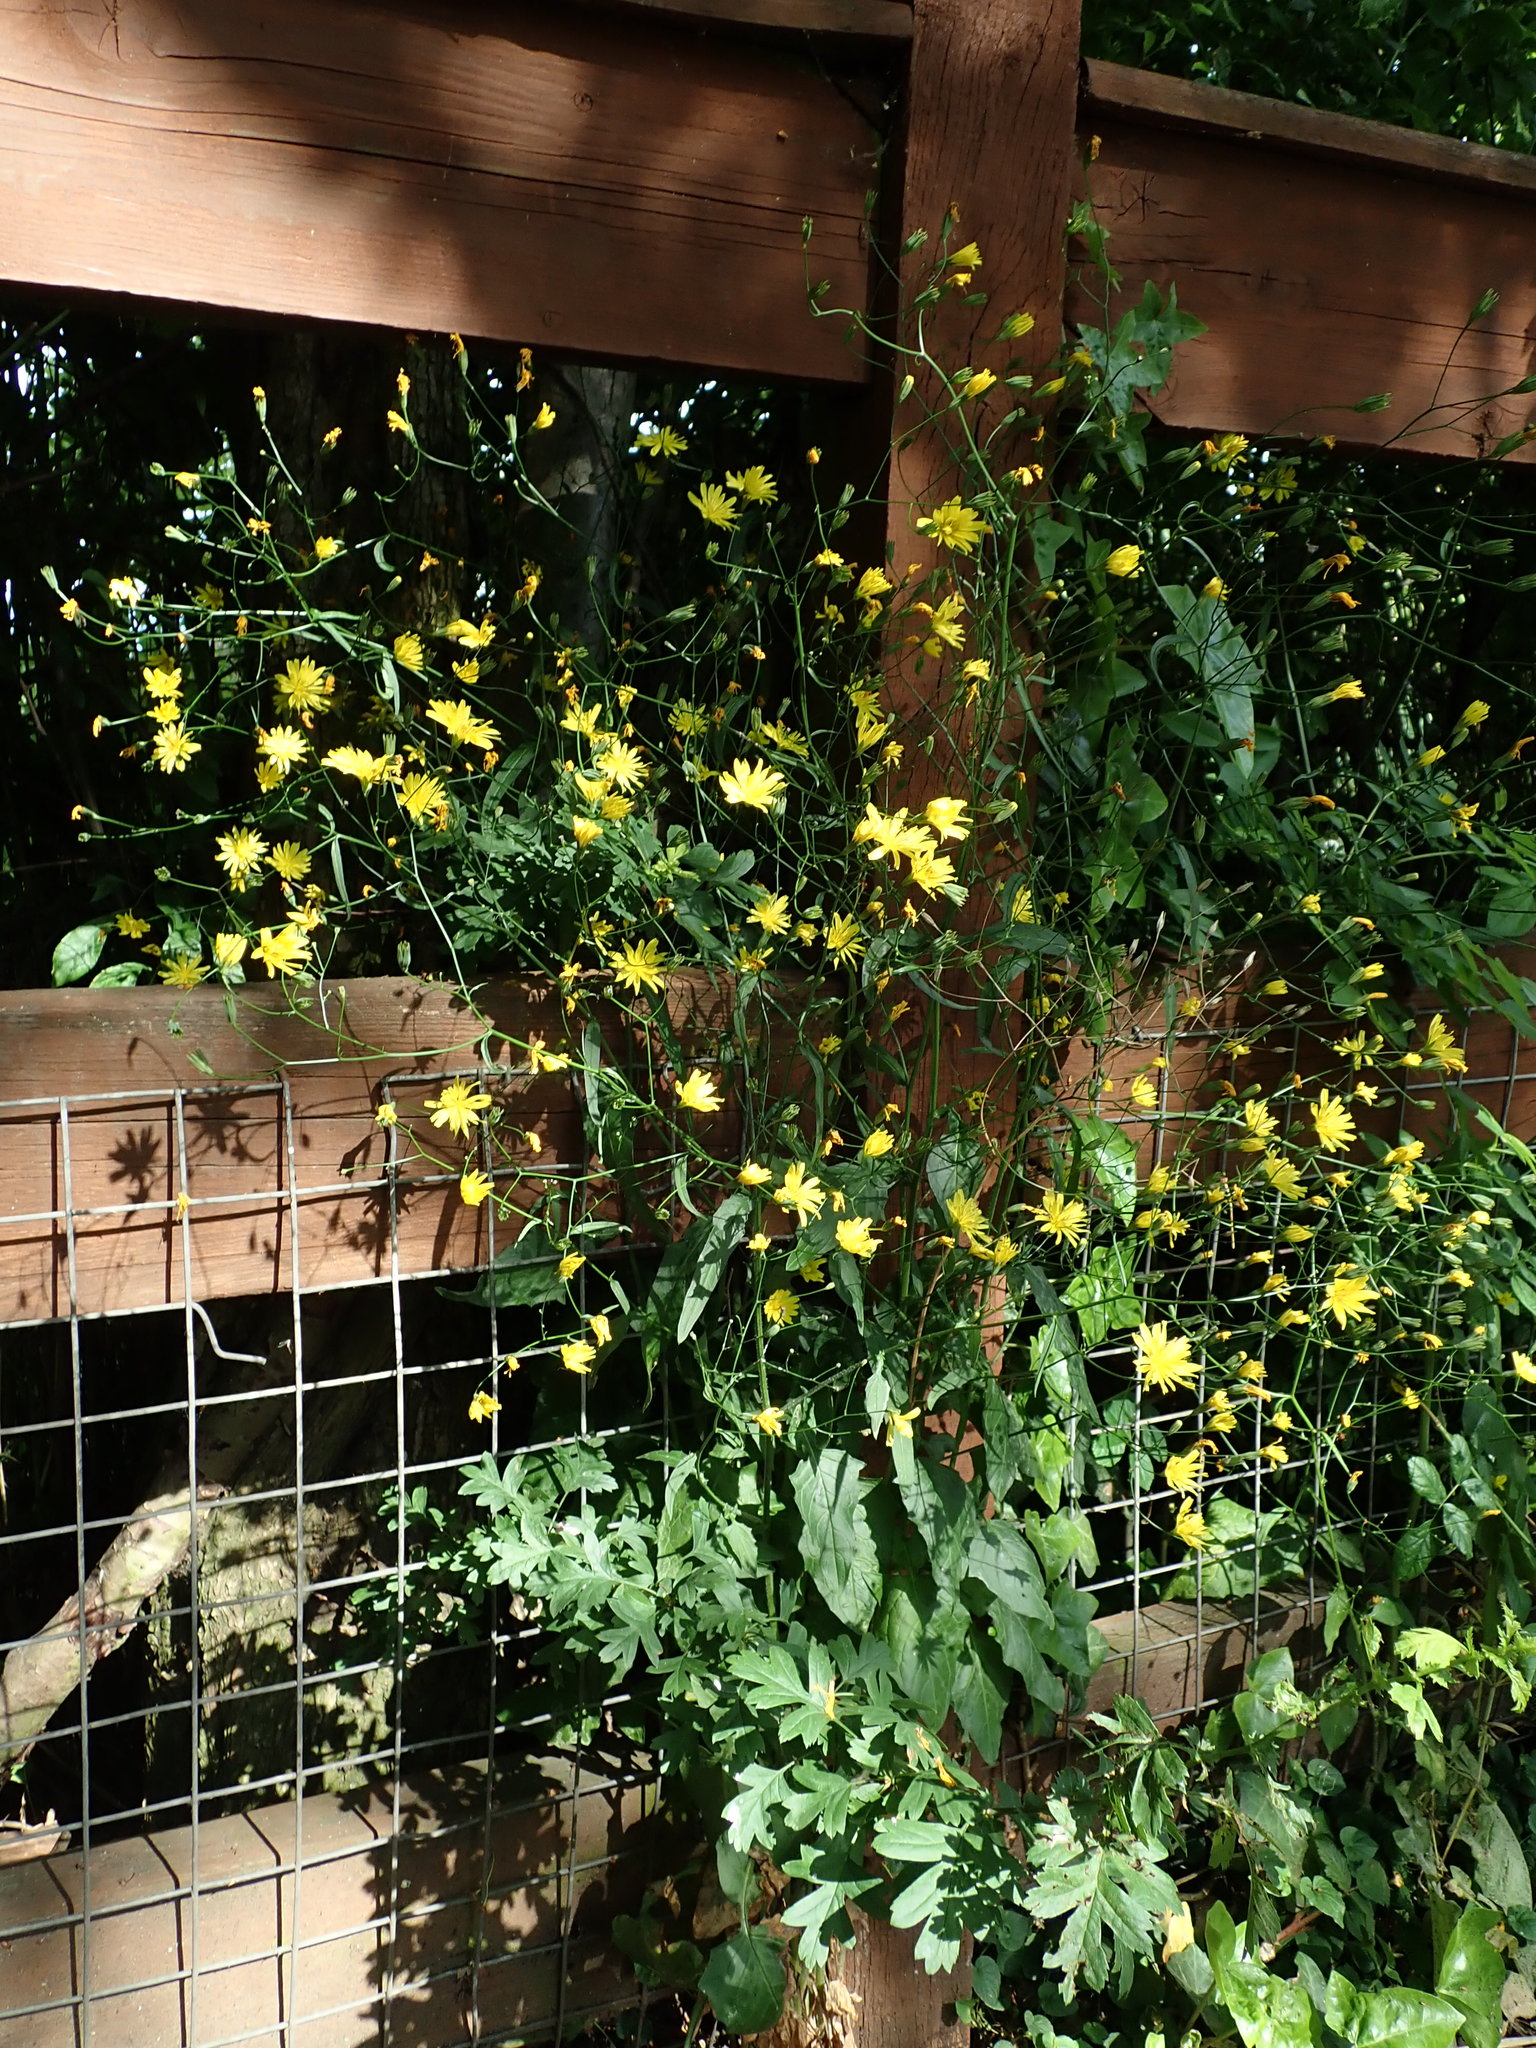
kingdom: Plantae
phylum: Tracheophyta
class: Magnoliopsida
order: Asterales
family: Asteraceae
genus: Lapsana
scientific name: Lapsana communis
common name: Nipplewort
